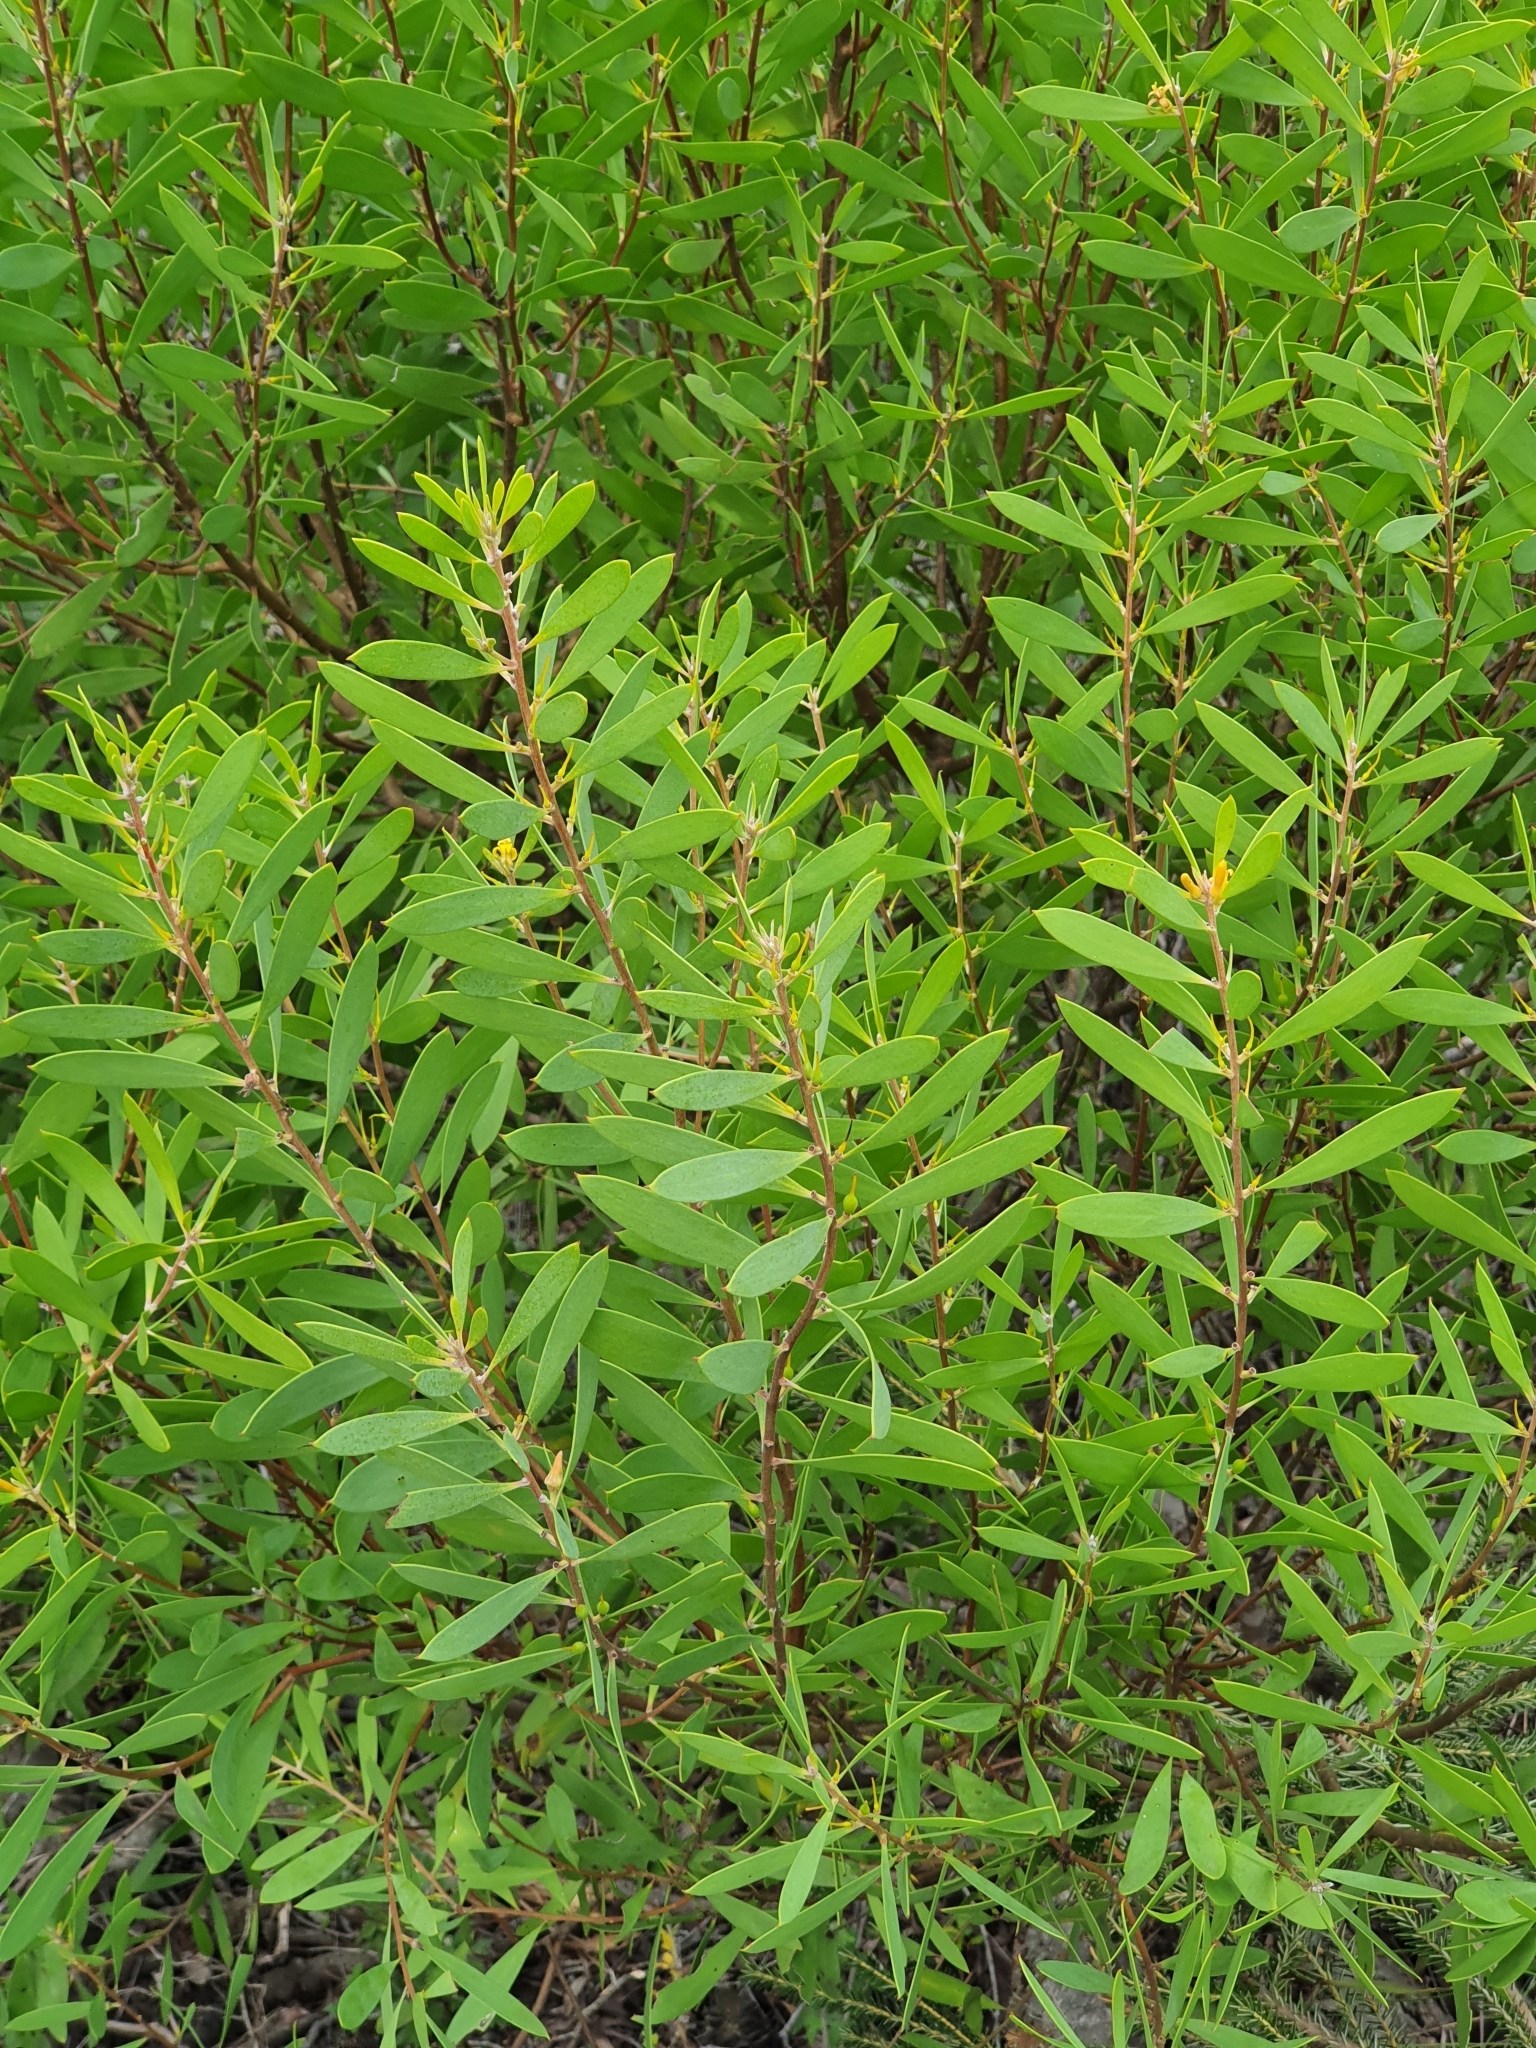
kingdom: Plantae
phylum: Tracheophyta
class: Magnoliopsida
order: Proteales
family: Proteaceae
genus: Persoonia
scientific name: Persoonia lanceolata
